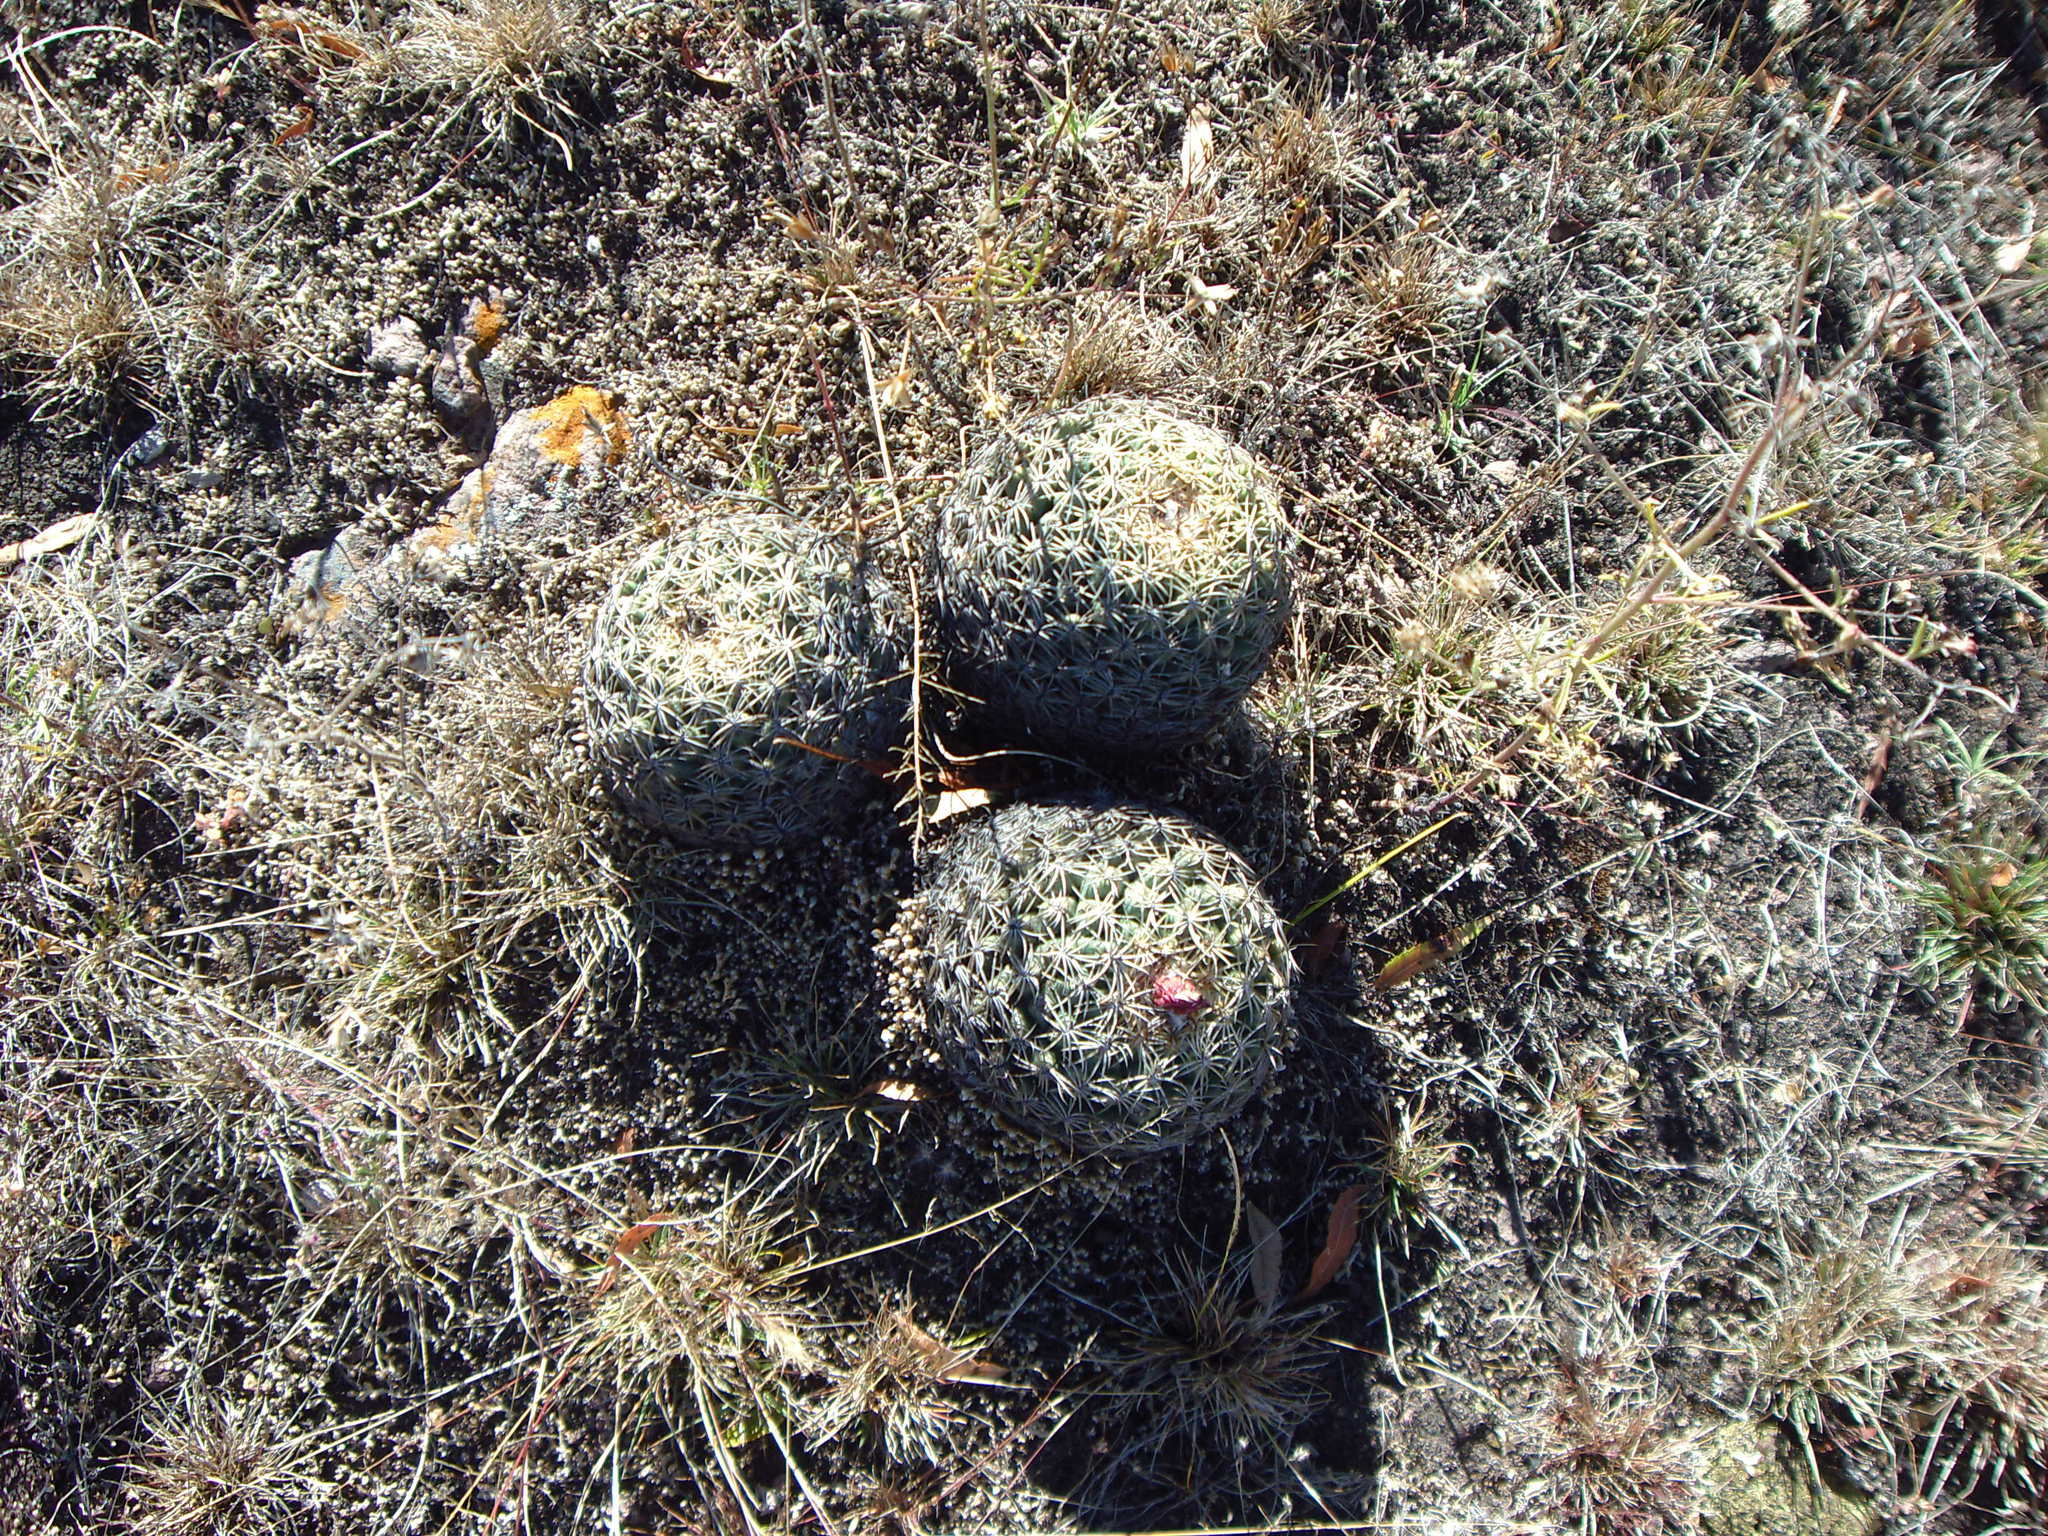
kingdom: Plantae
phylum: Tracheophyta
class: Magnoliopsida
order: Caryophyllales
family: Cactaceae
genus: Coryphantha
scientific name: Coryphantha retusa
